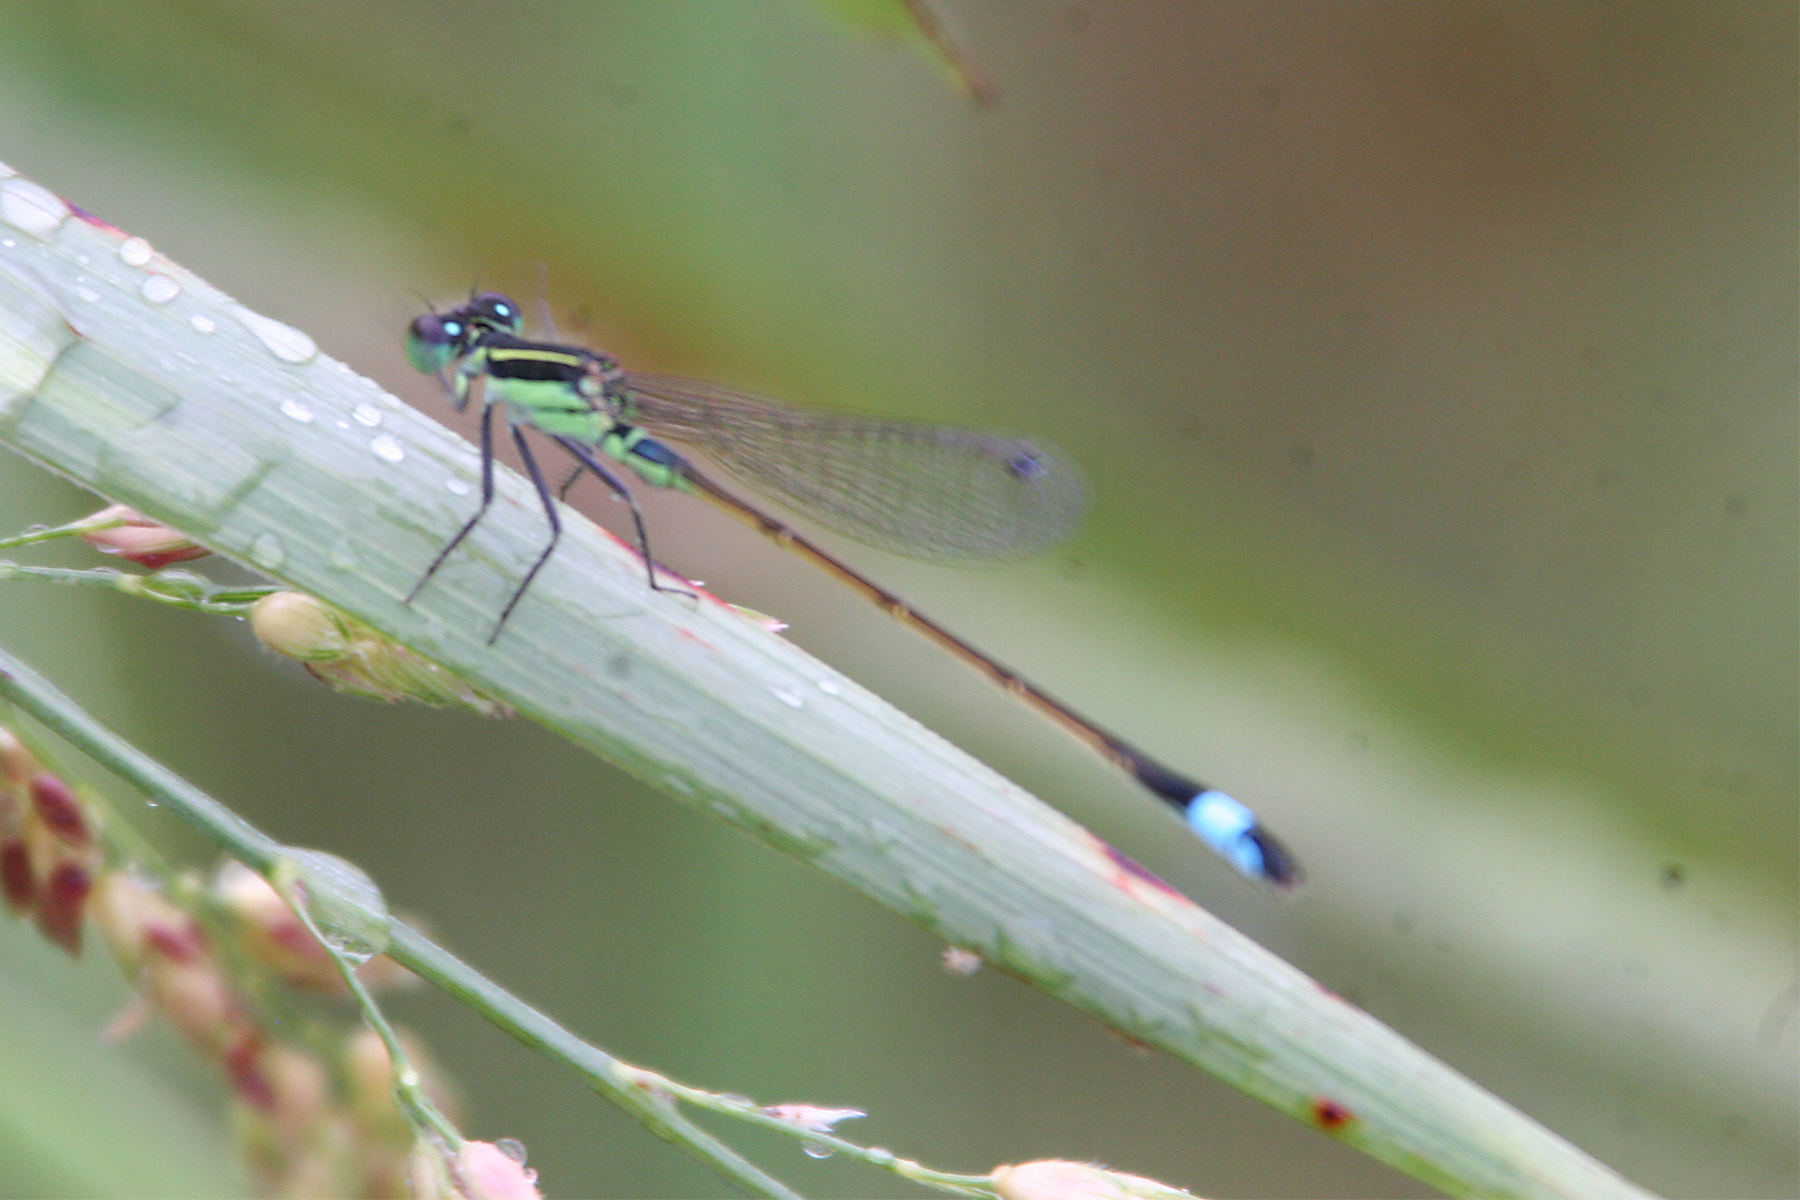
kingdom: Animalia
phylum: Arthropoda
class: Insecta
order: Odonata
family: Coenagrionidae
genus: Ischnura
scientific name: Ischnura ramburii
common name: Rambur's forktail
